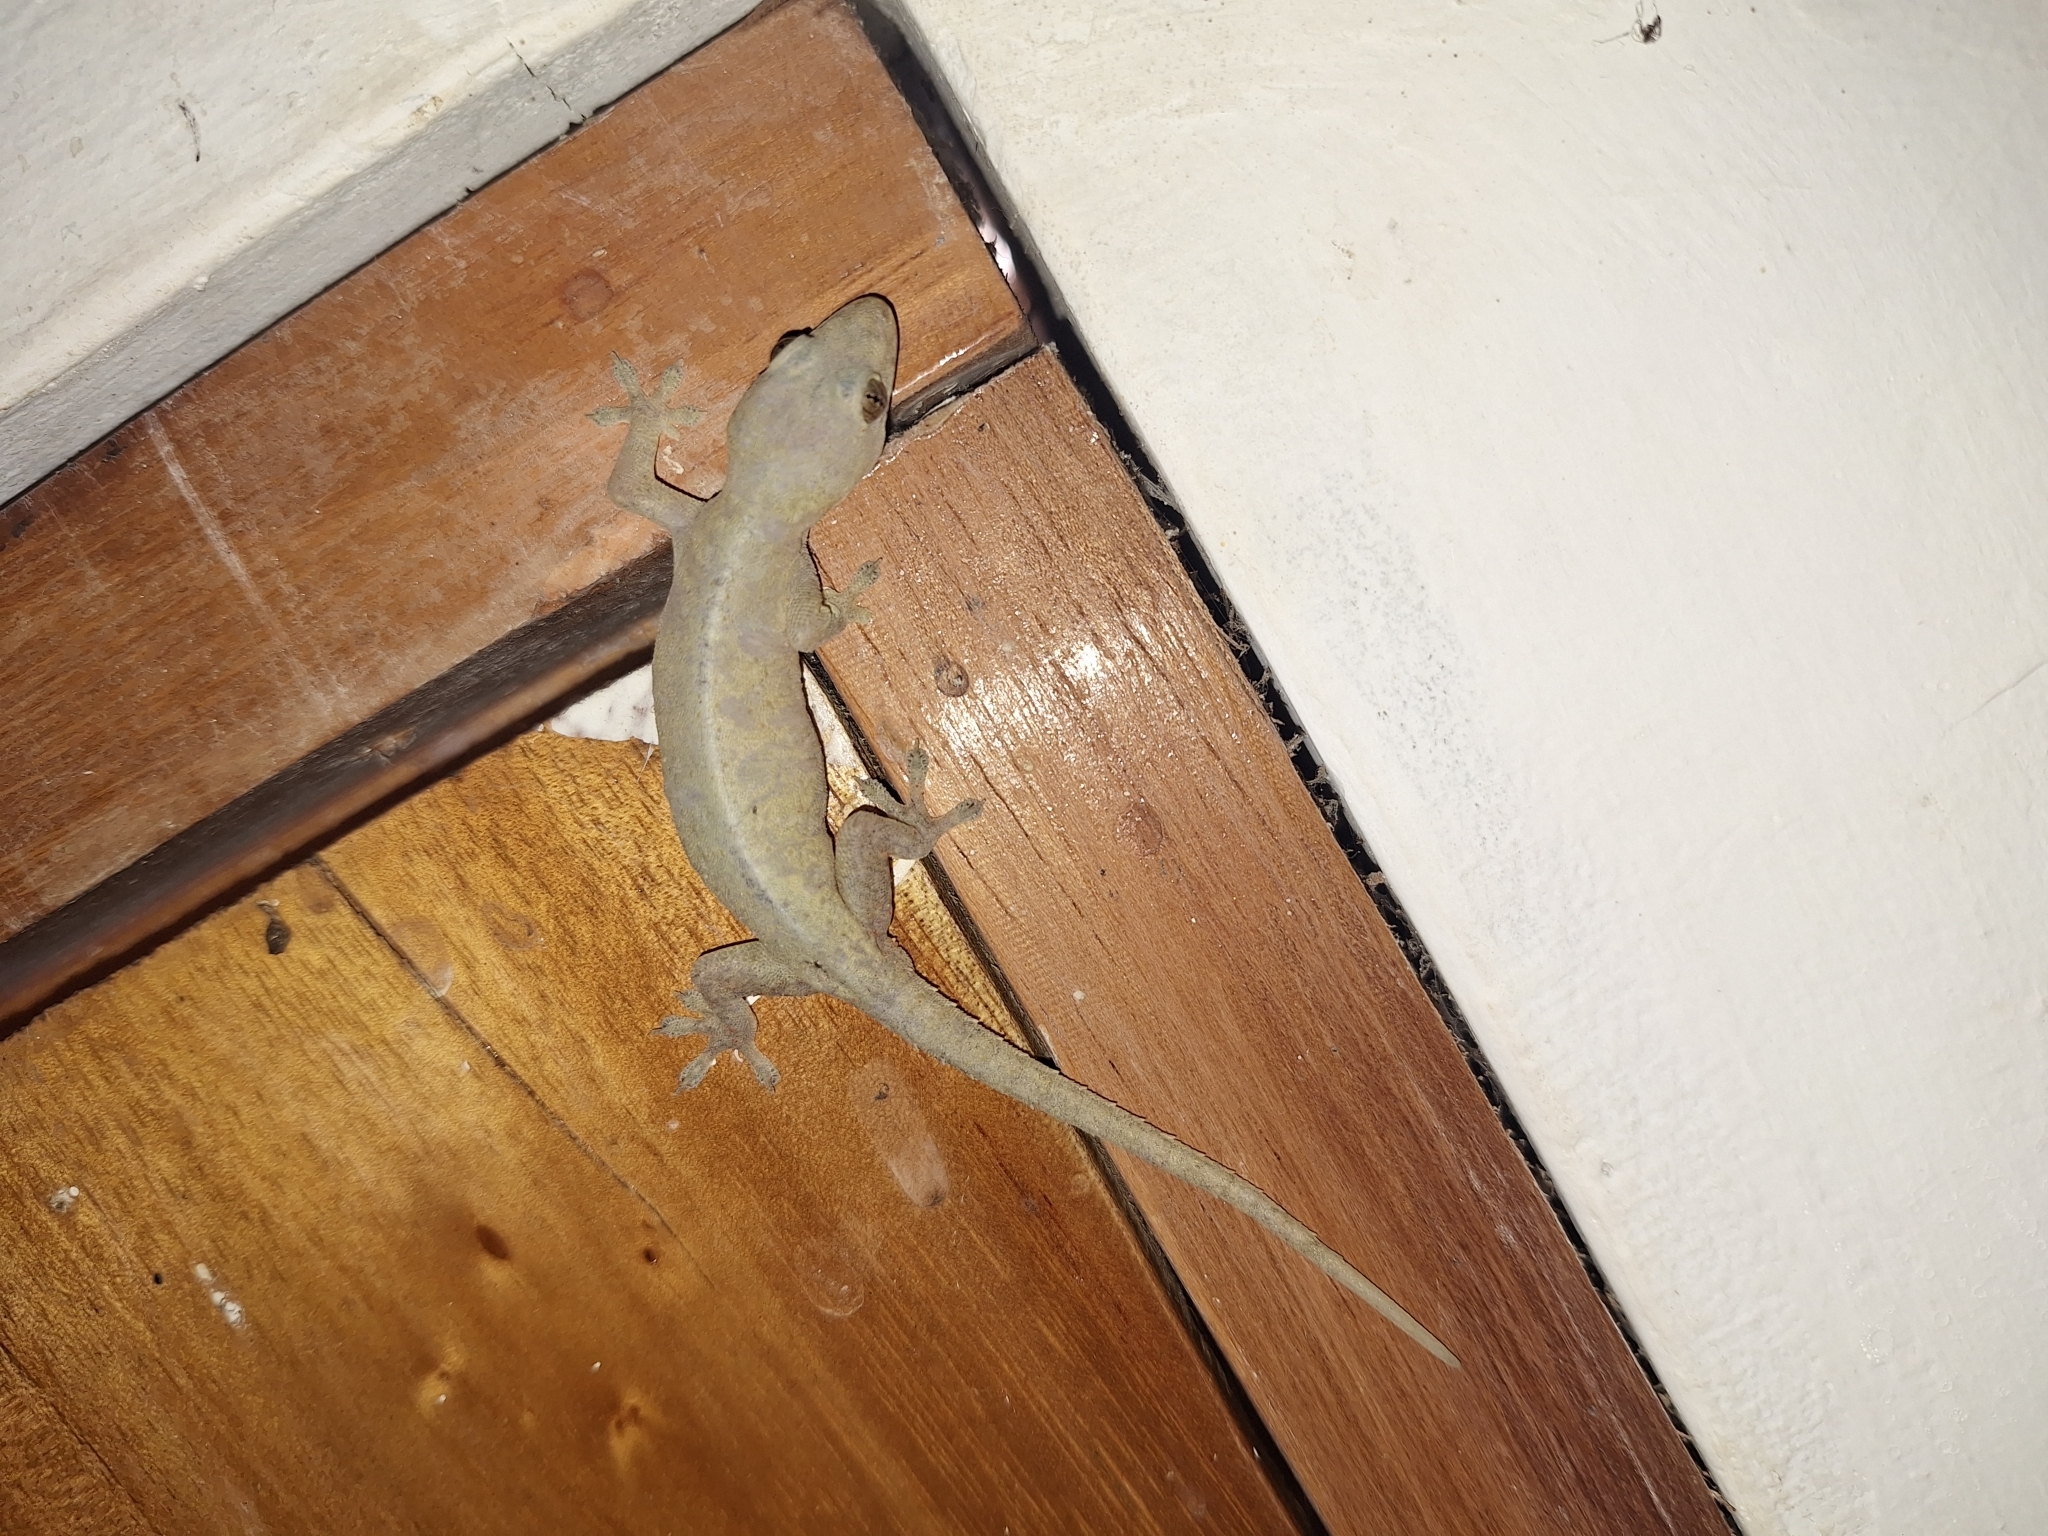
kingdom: Animalia
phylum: Chordata
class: Squamata
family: Gekkonidae
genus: Hemidactylus
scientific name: Hemidactylus frenatus
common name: Common house gecko
